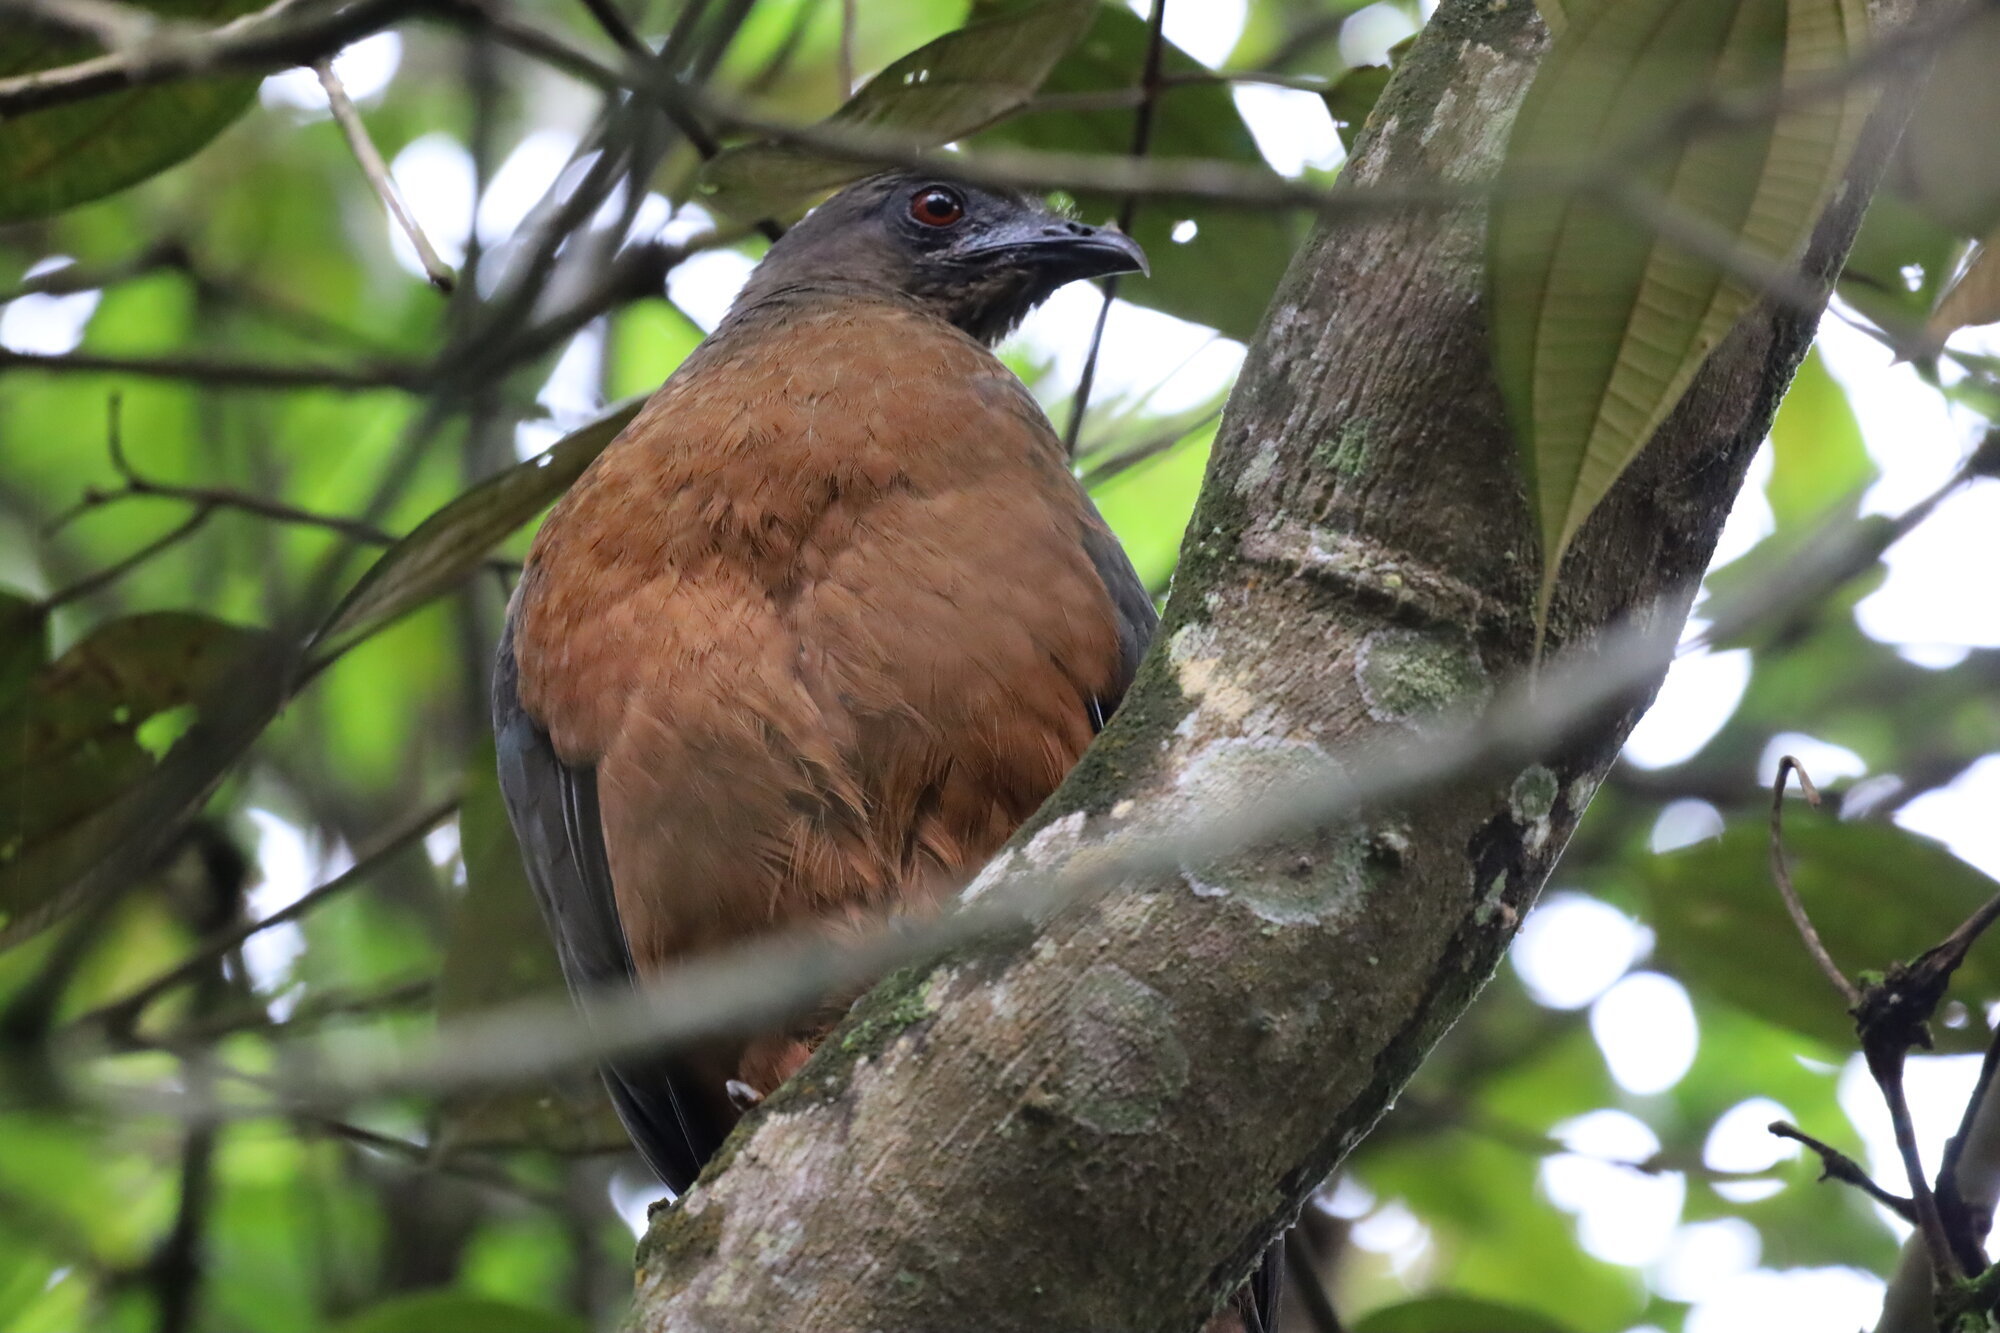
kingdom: Animalia
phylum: Chordata
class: Aves
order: Galliformes
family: Cracidae
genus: Chamaepetes
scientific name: Chamaepetes goudotii
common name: Sickle-winged guan
